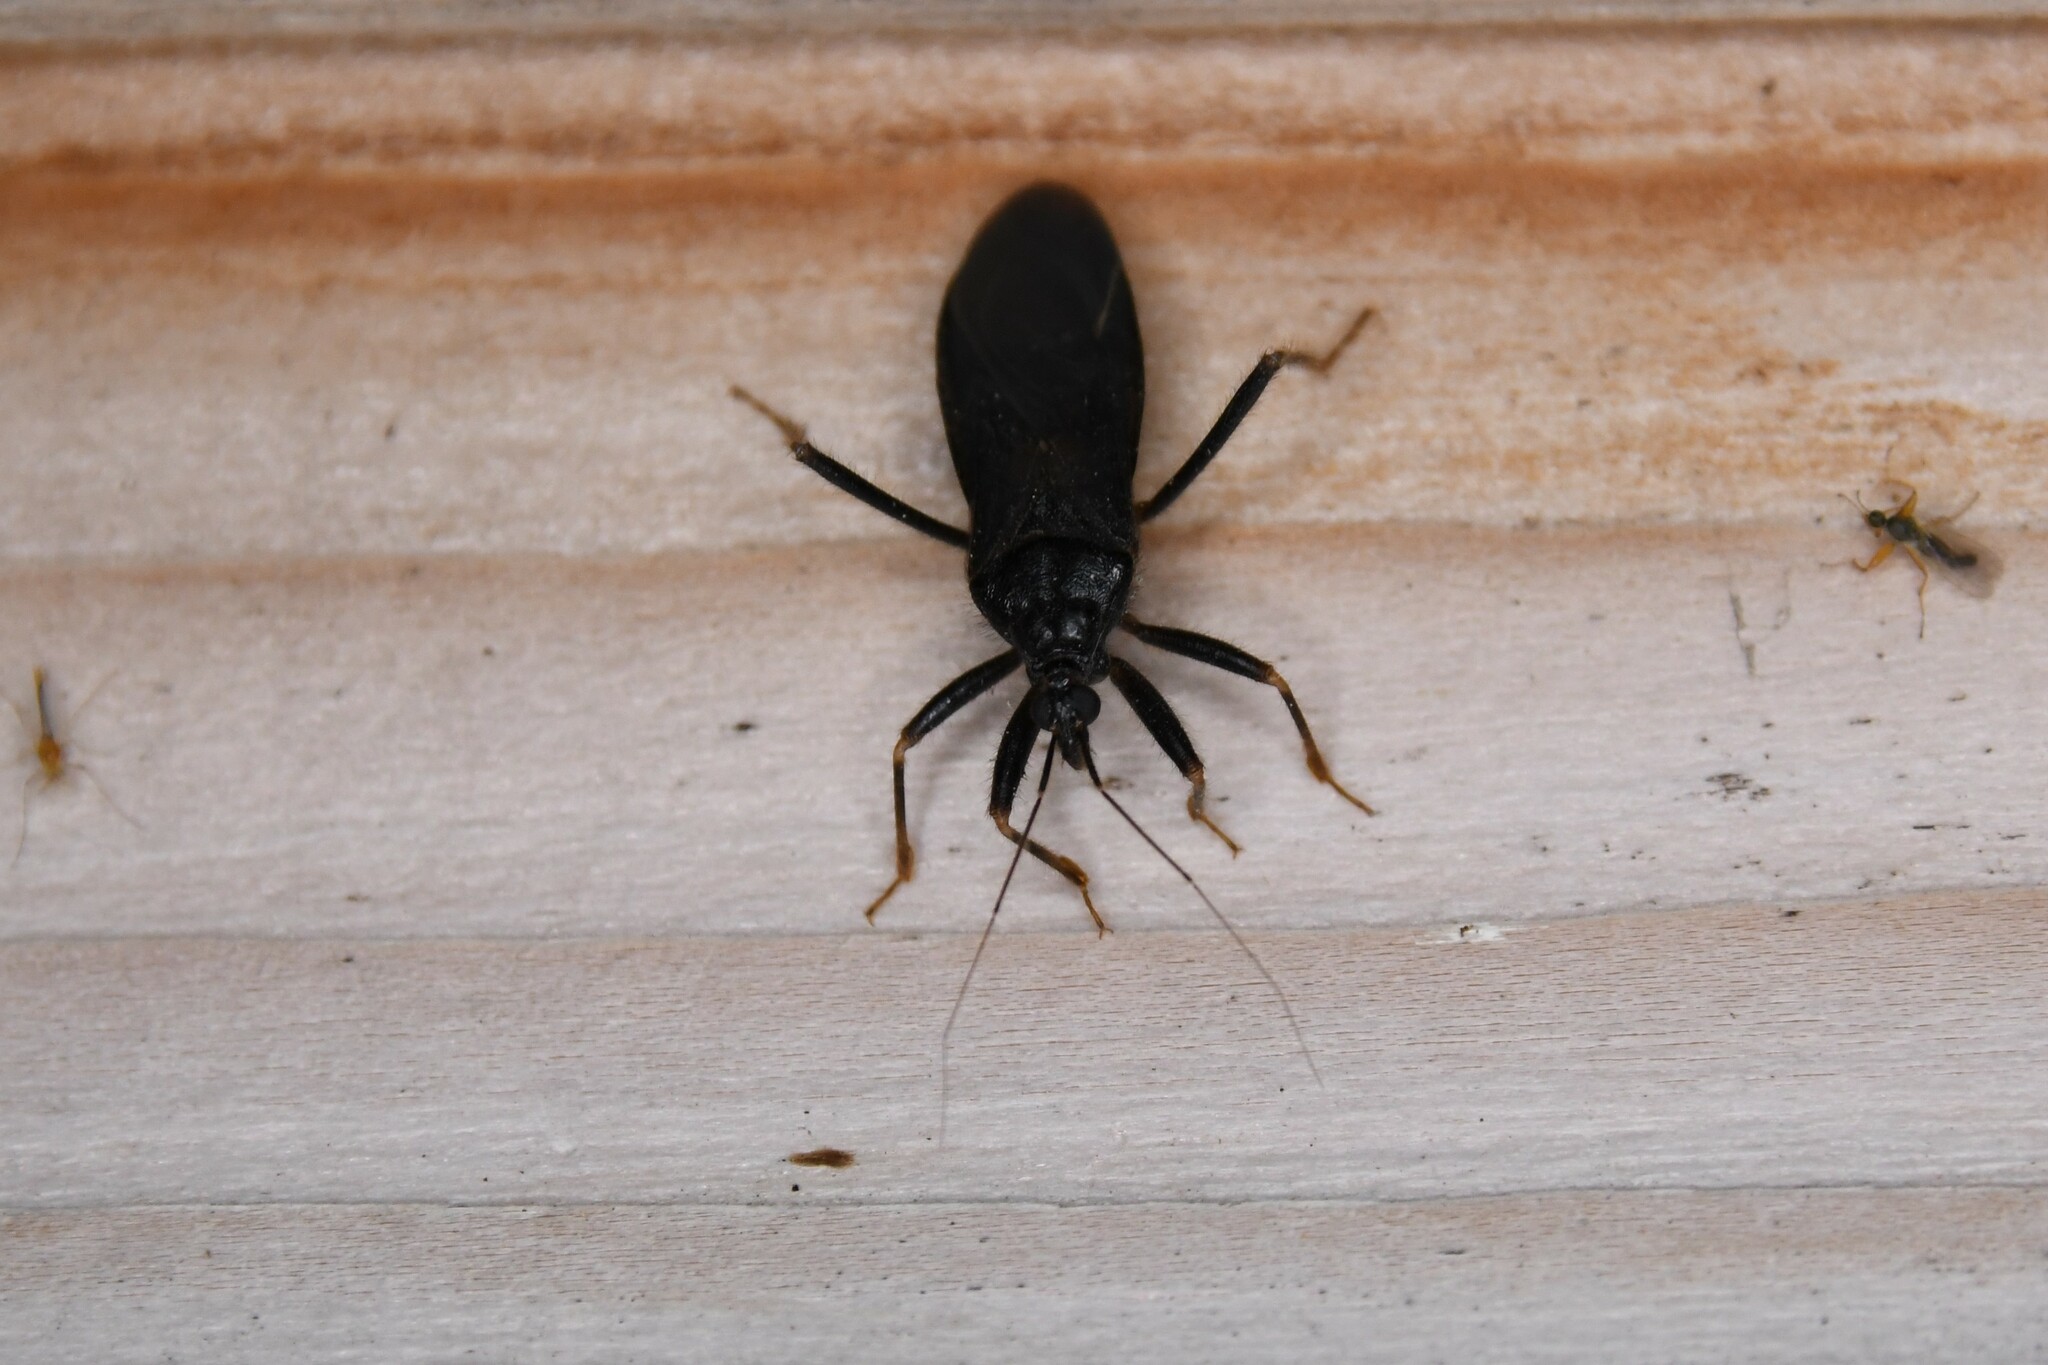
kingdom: Animalia
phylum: Arthropoda
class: Insecta
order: Hemiptera
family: Reduviidae
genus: Reduvius
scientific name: Reduvius personatus
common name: Masked hunter
